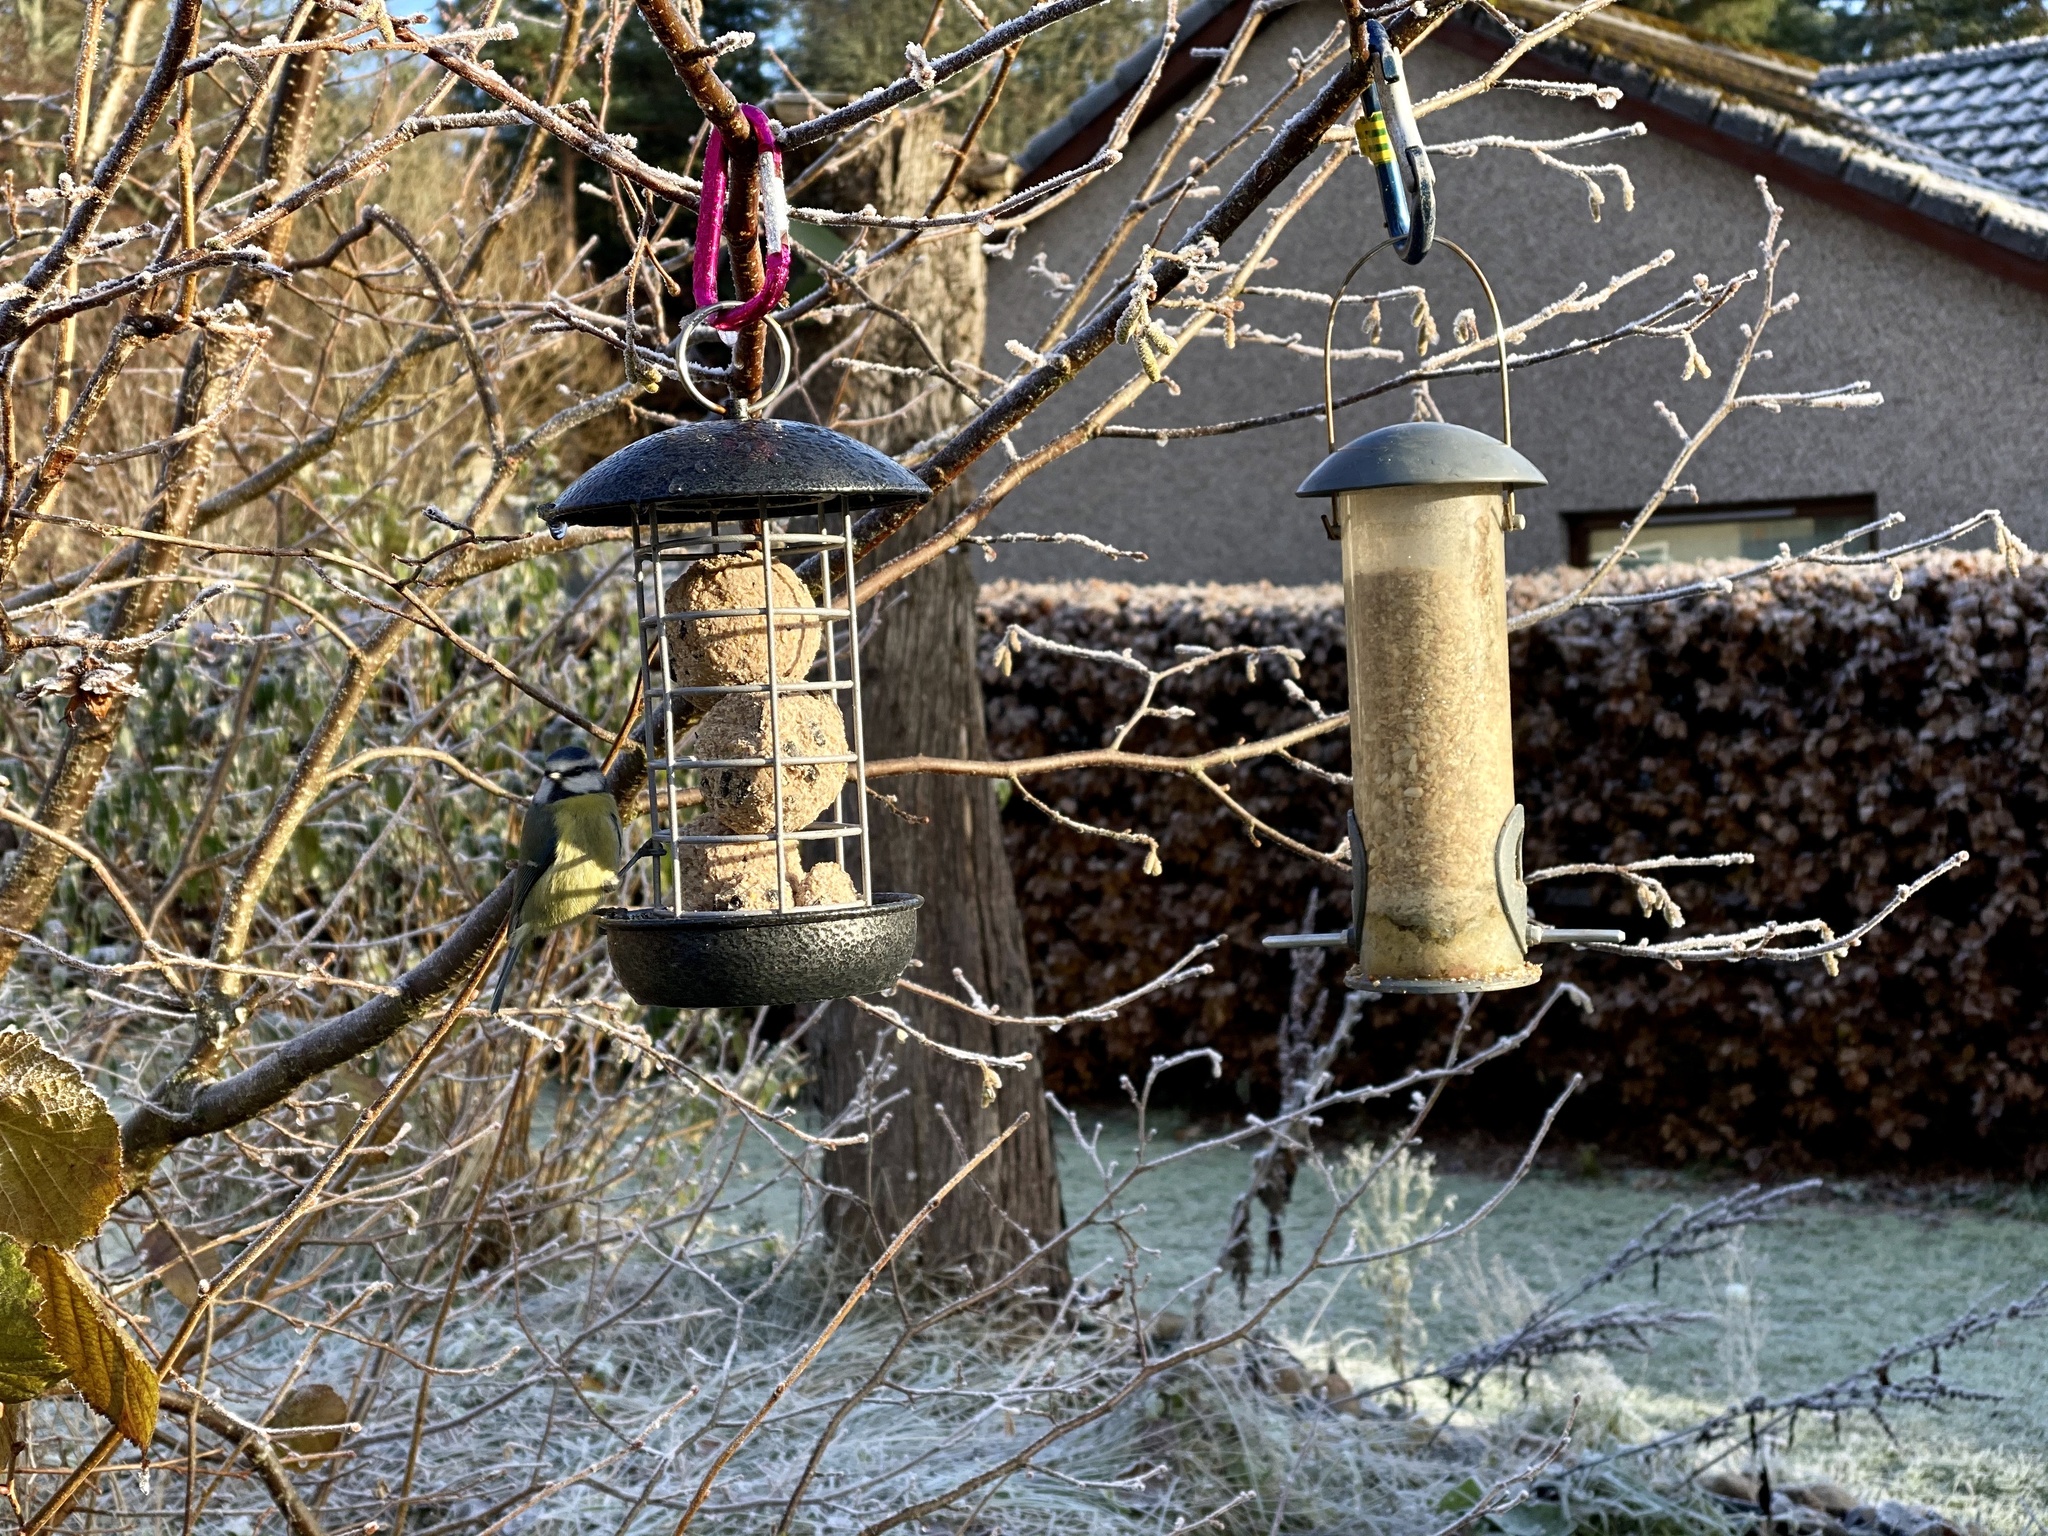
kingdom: Animalia
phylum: Chordata
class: Aves
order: Passeriformes
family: Paridae
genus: Cyanistes
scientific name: Cyanistes caeruleus
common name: Eurasian blue tit
